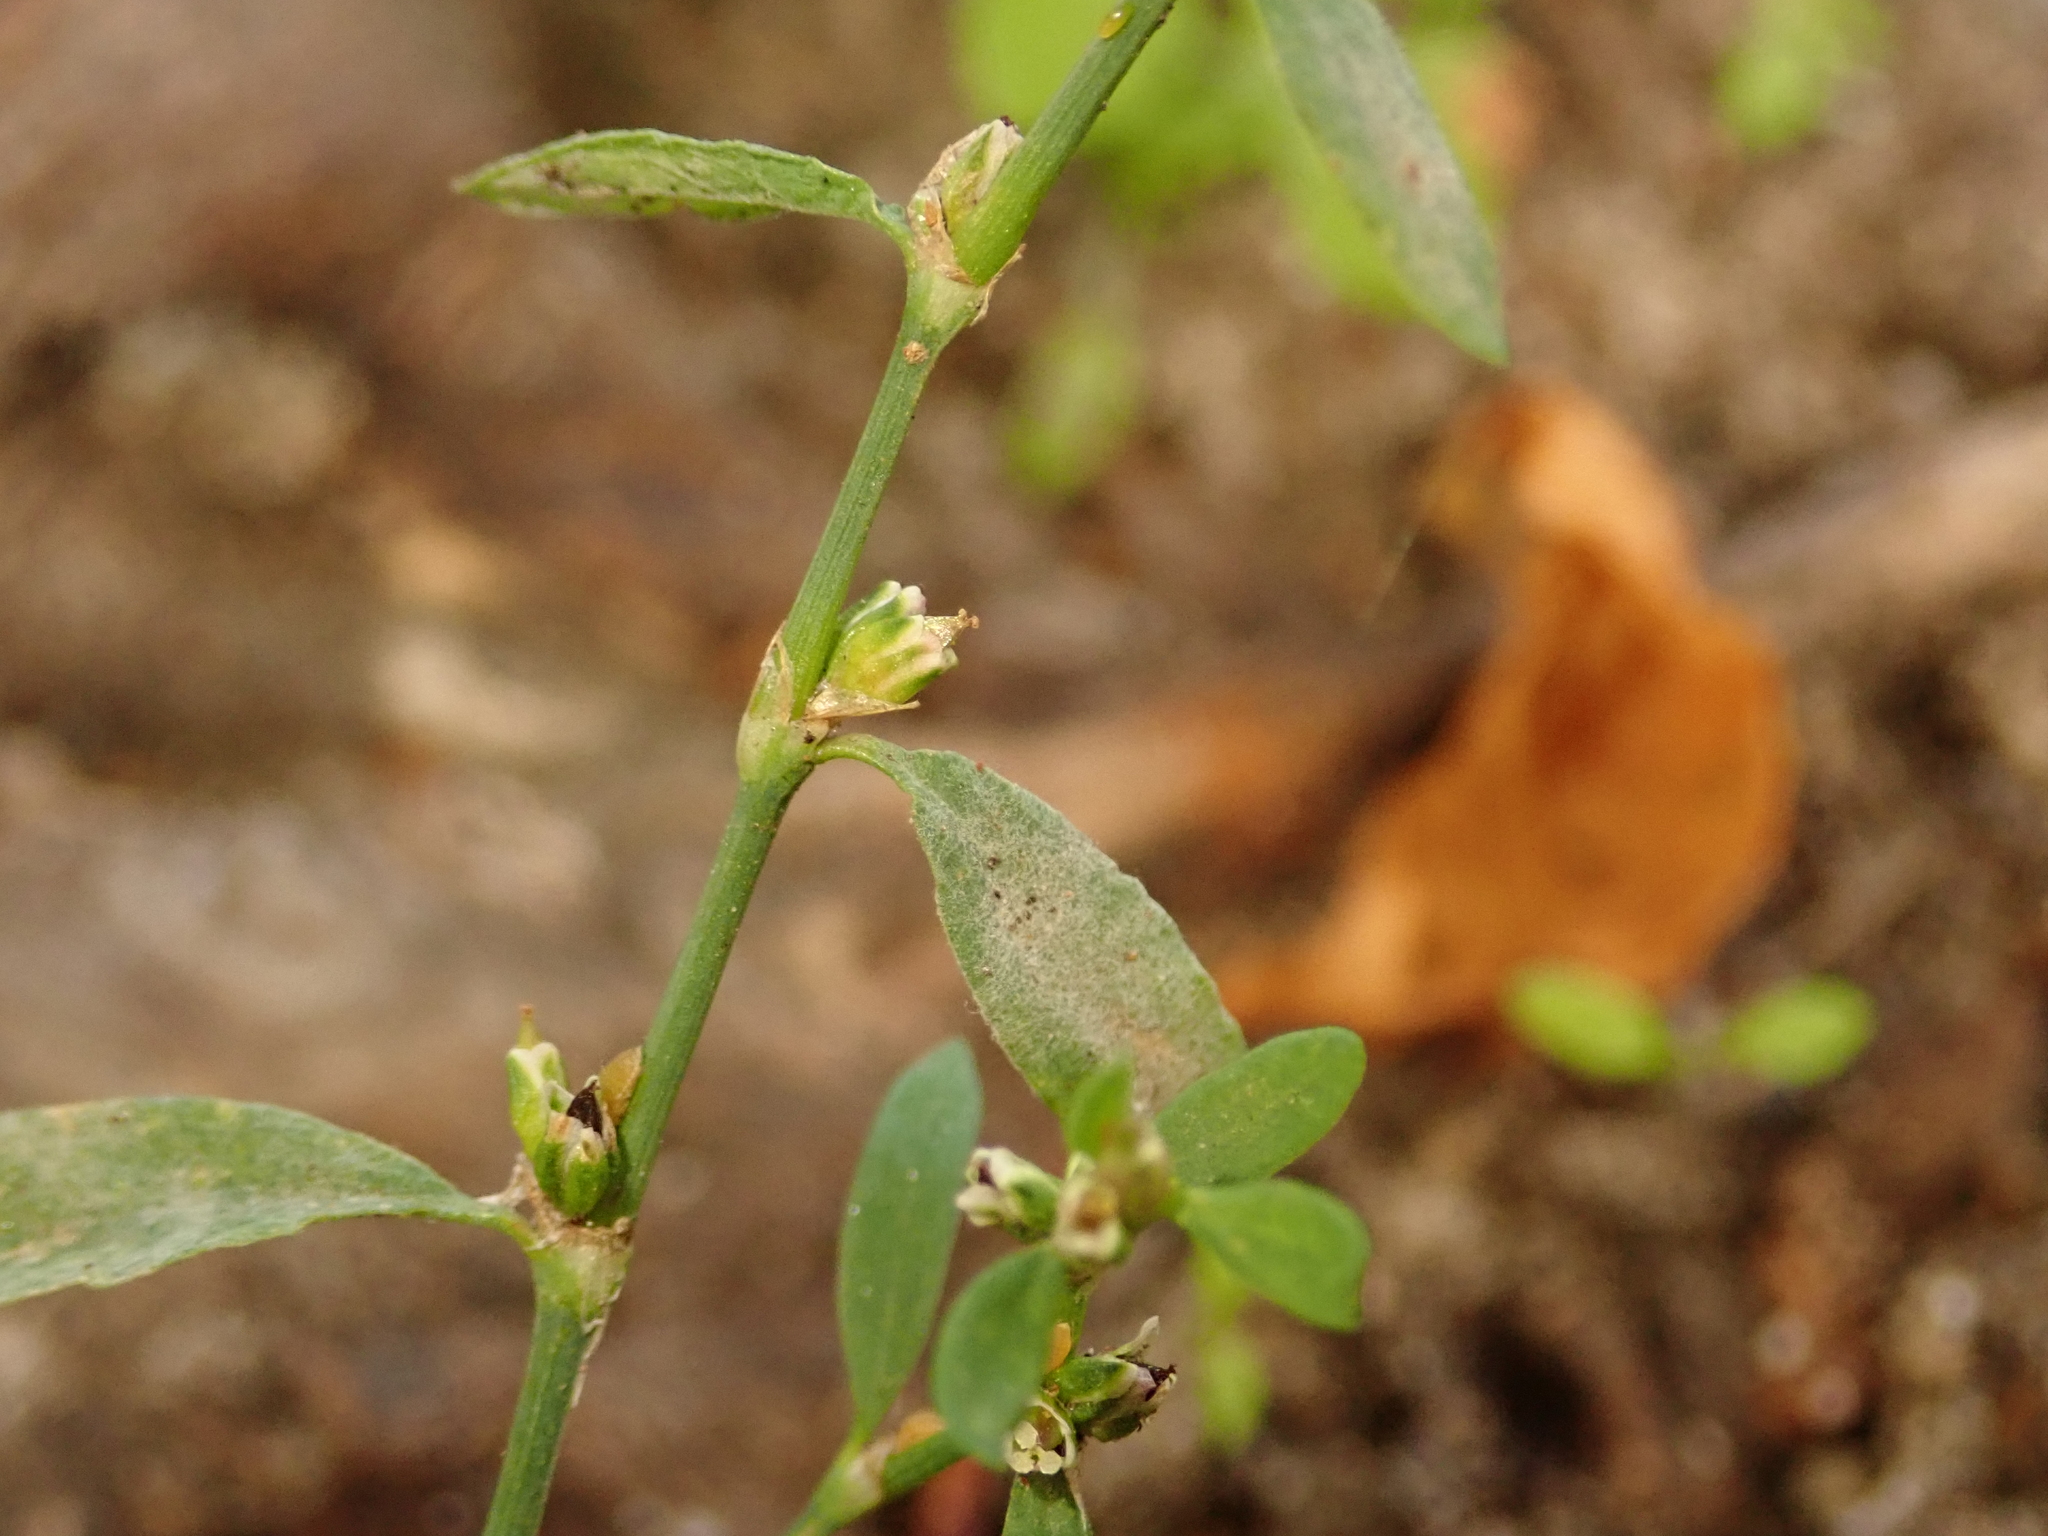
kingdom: Fungi
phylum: Ascomycota
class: Leotiomycetes
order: Helotiales
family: Erysiphaceae
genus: Erysiphe
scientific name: Erysiphe polygoni
